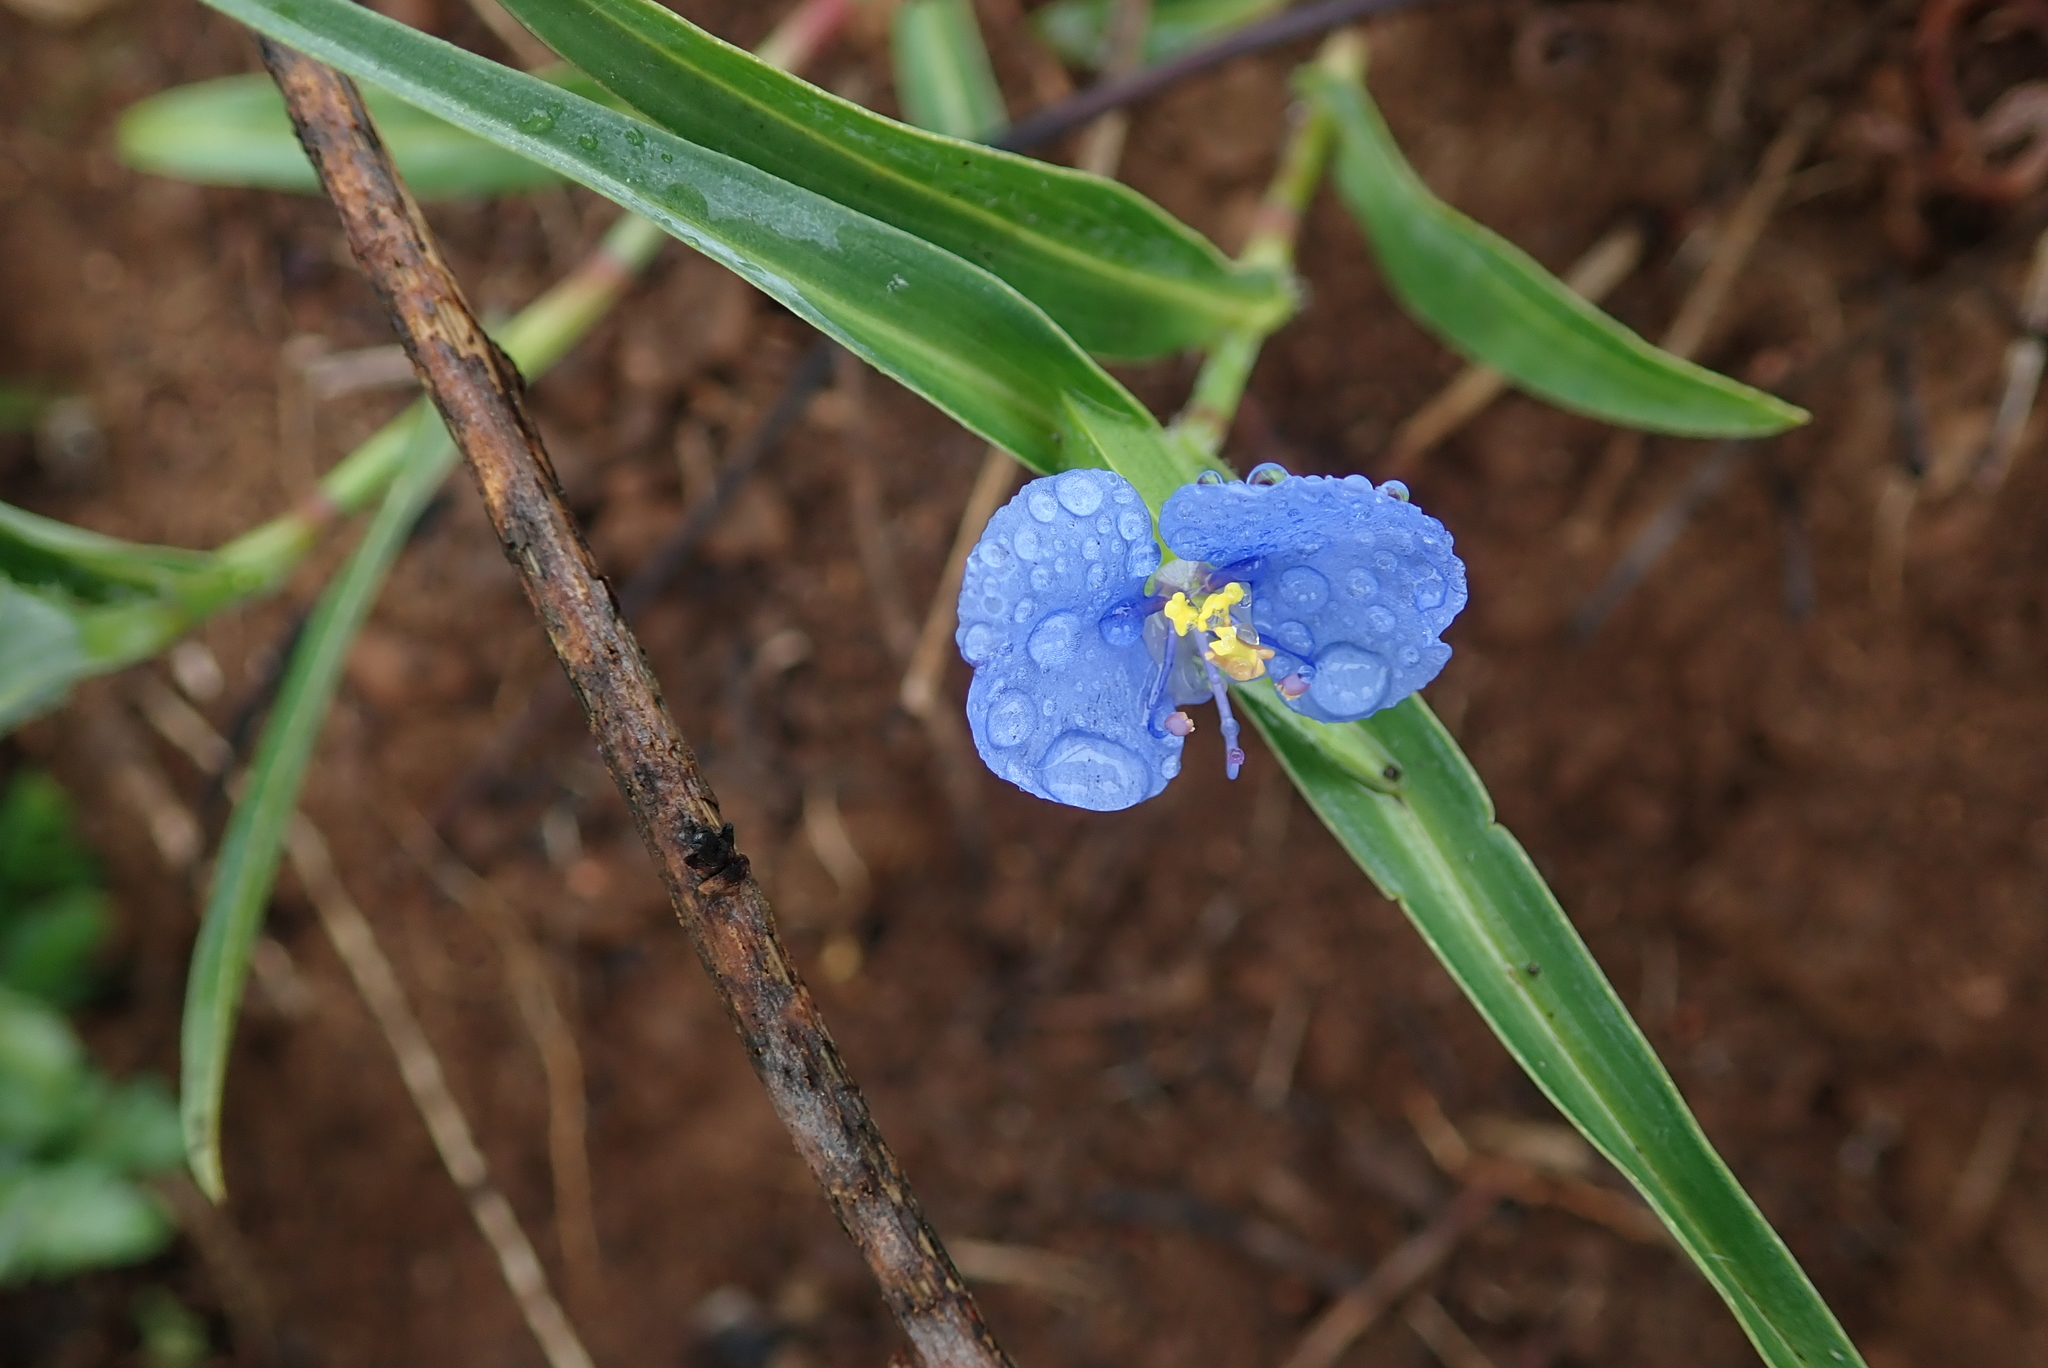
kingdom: Plantae
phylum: Tracheophyta
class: Liliopsida
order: Commelinales
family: Commelinaceae
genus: Commelina
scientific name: Commelina erecta
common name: Blousel blommetjie
